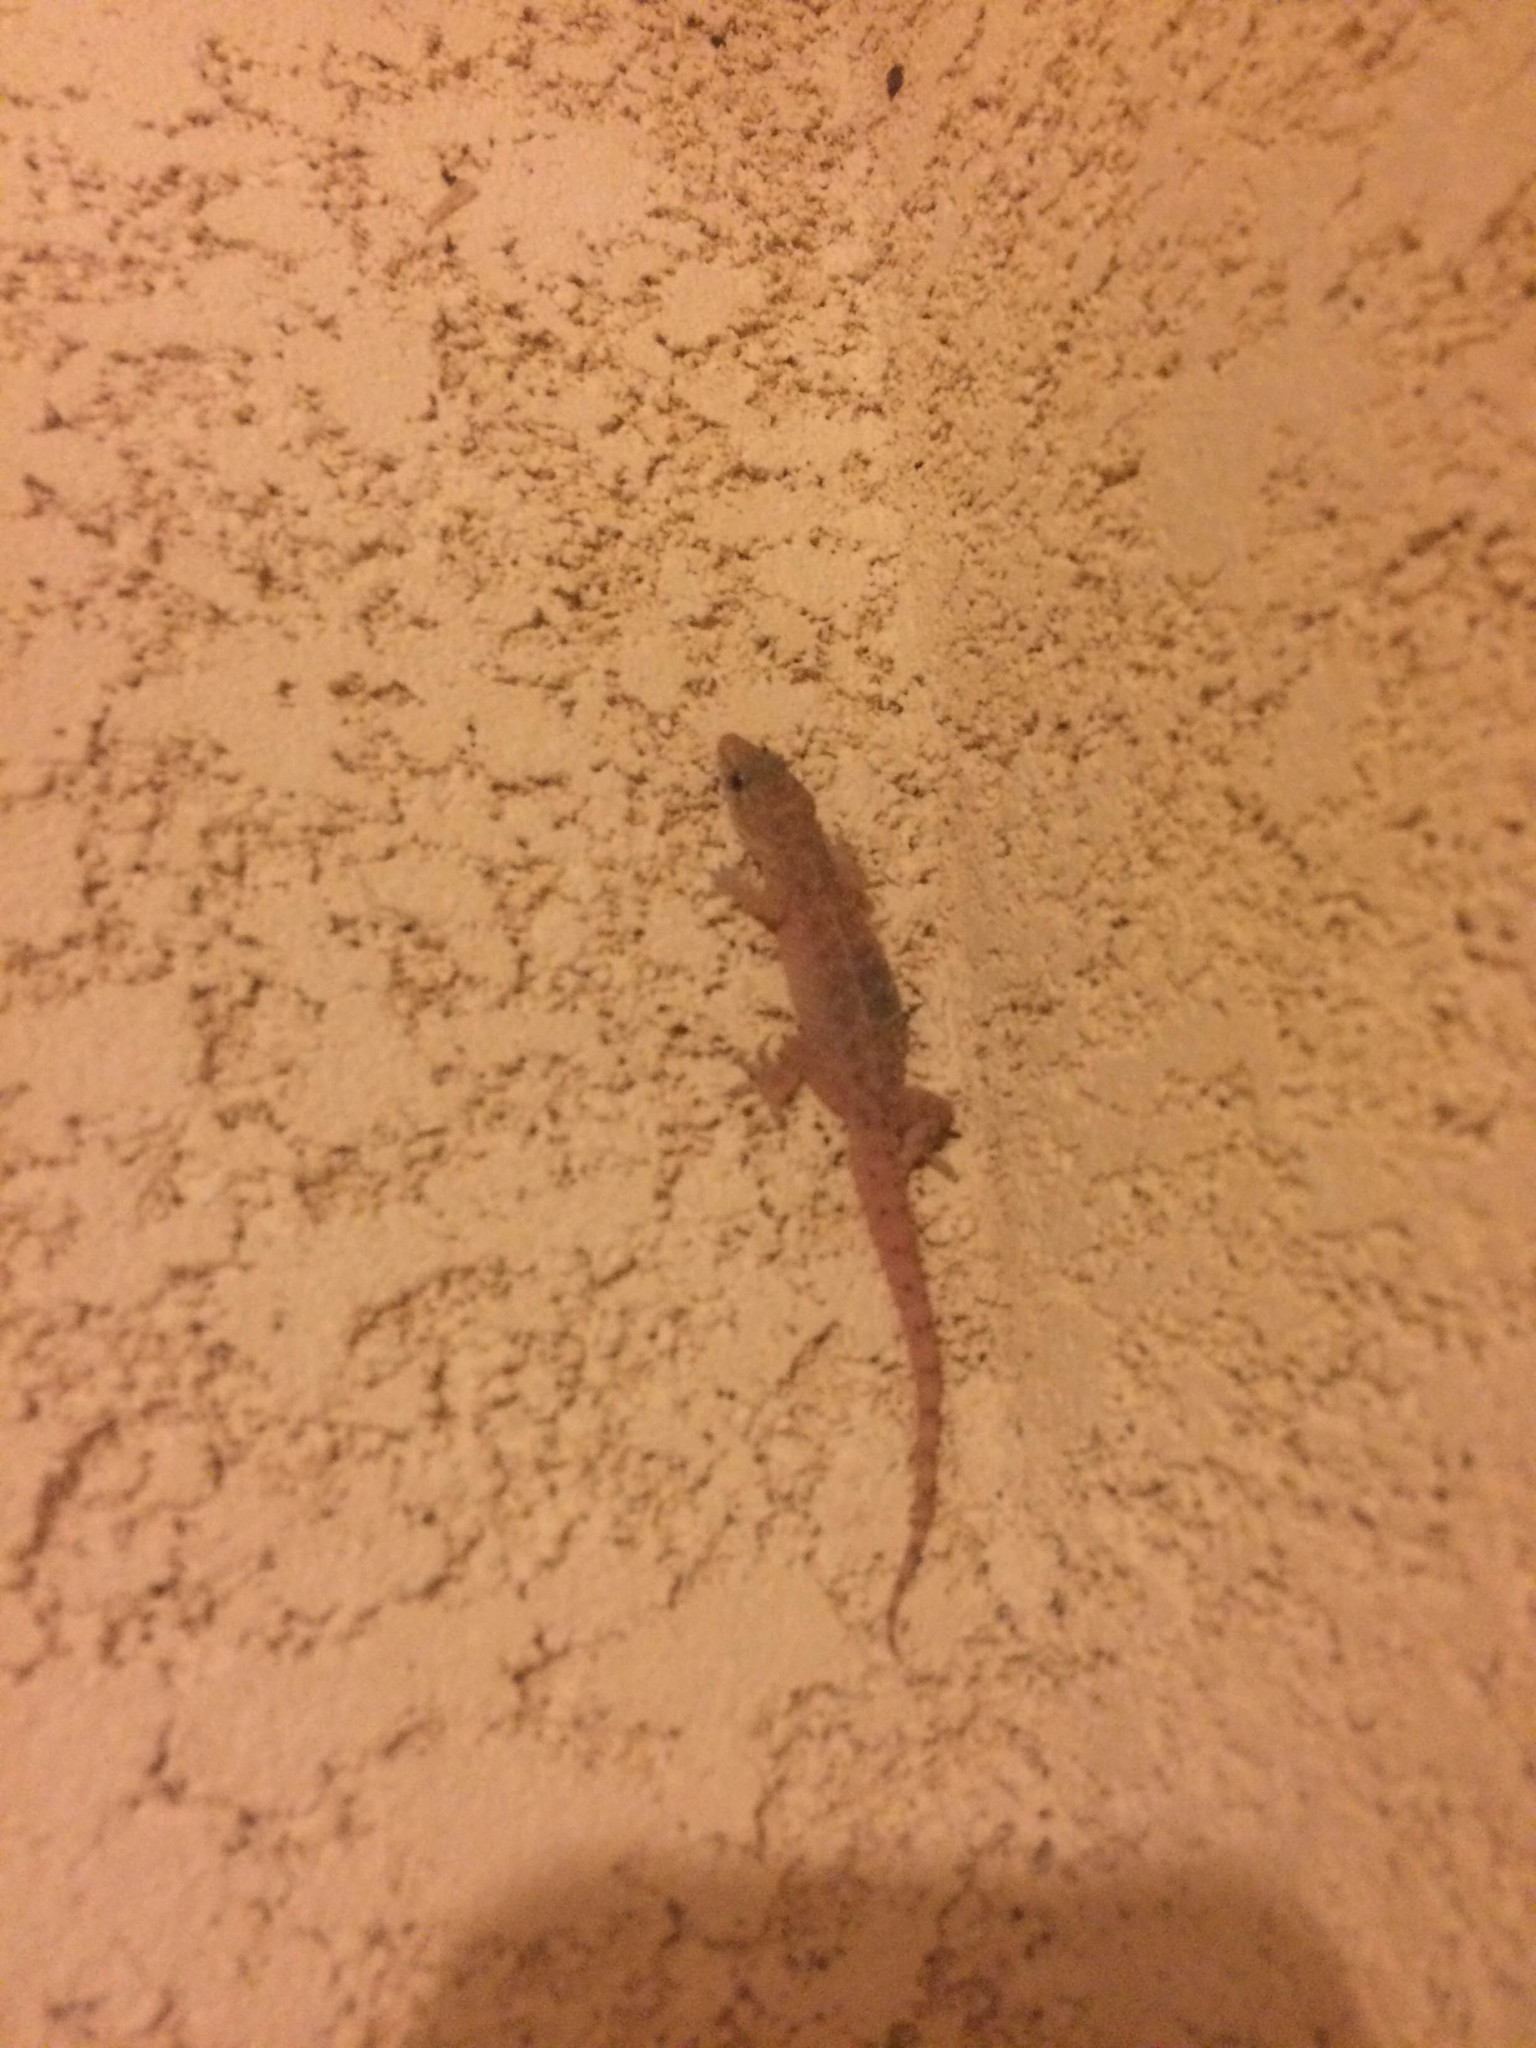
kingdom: Animalia
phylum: Chordata
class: Squamata
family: Gekkonidae
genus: Hemidactylus
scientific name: Hemidactylus parvimaculatus
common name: Spotted house gecko
